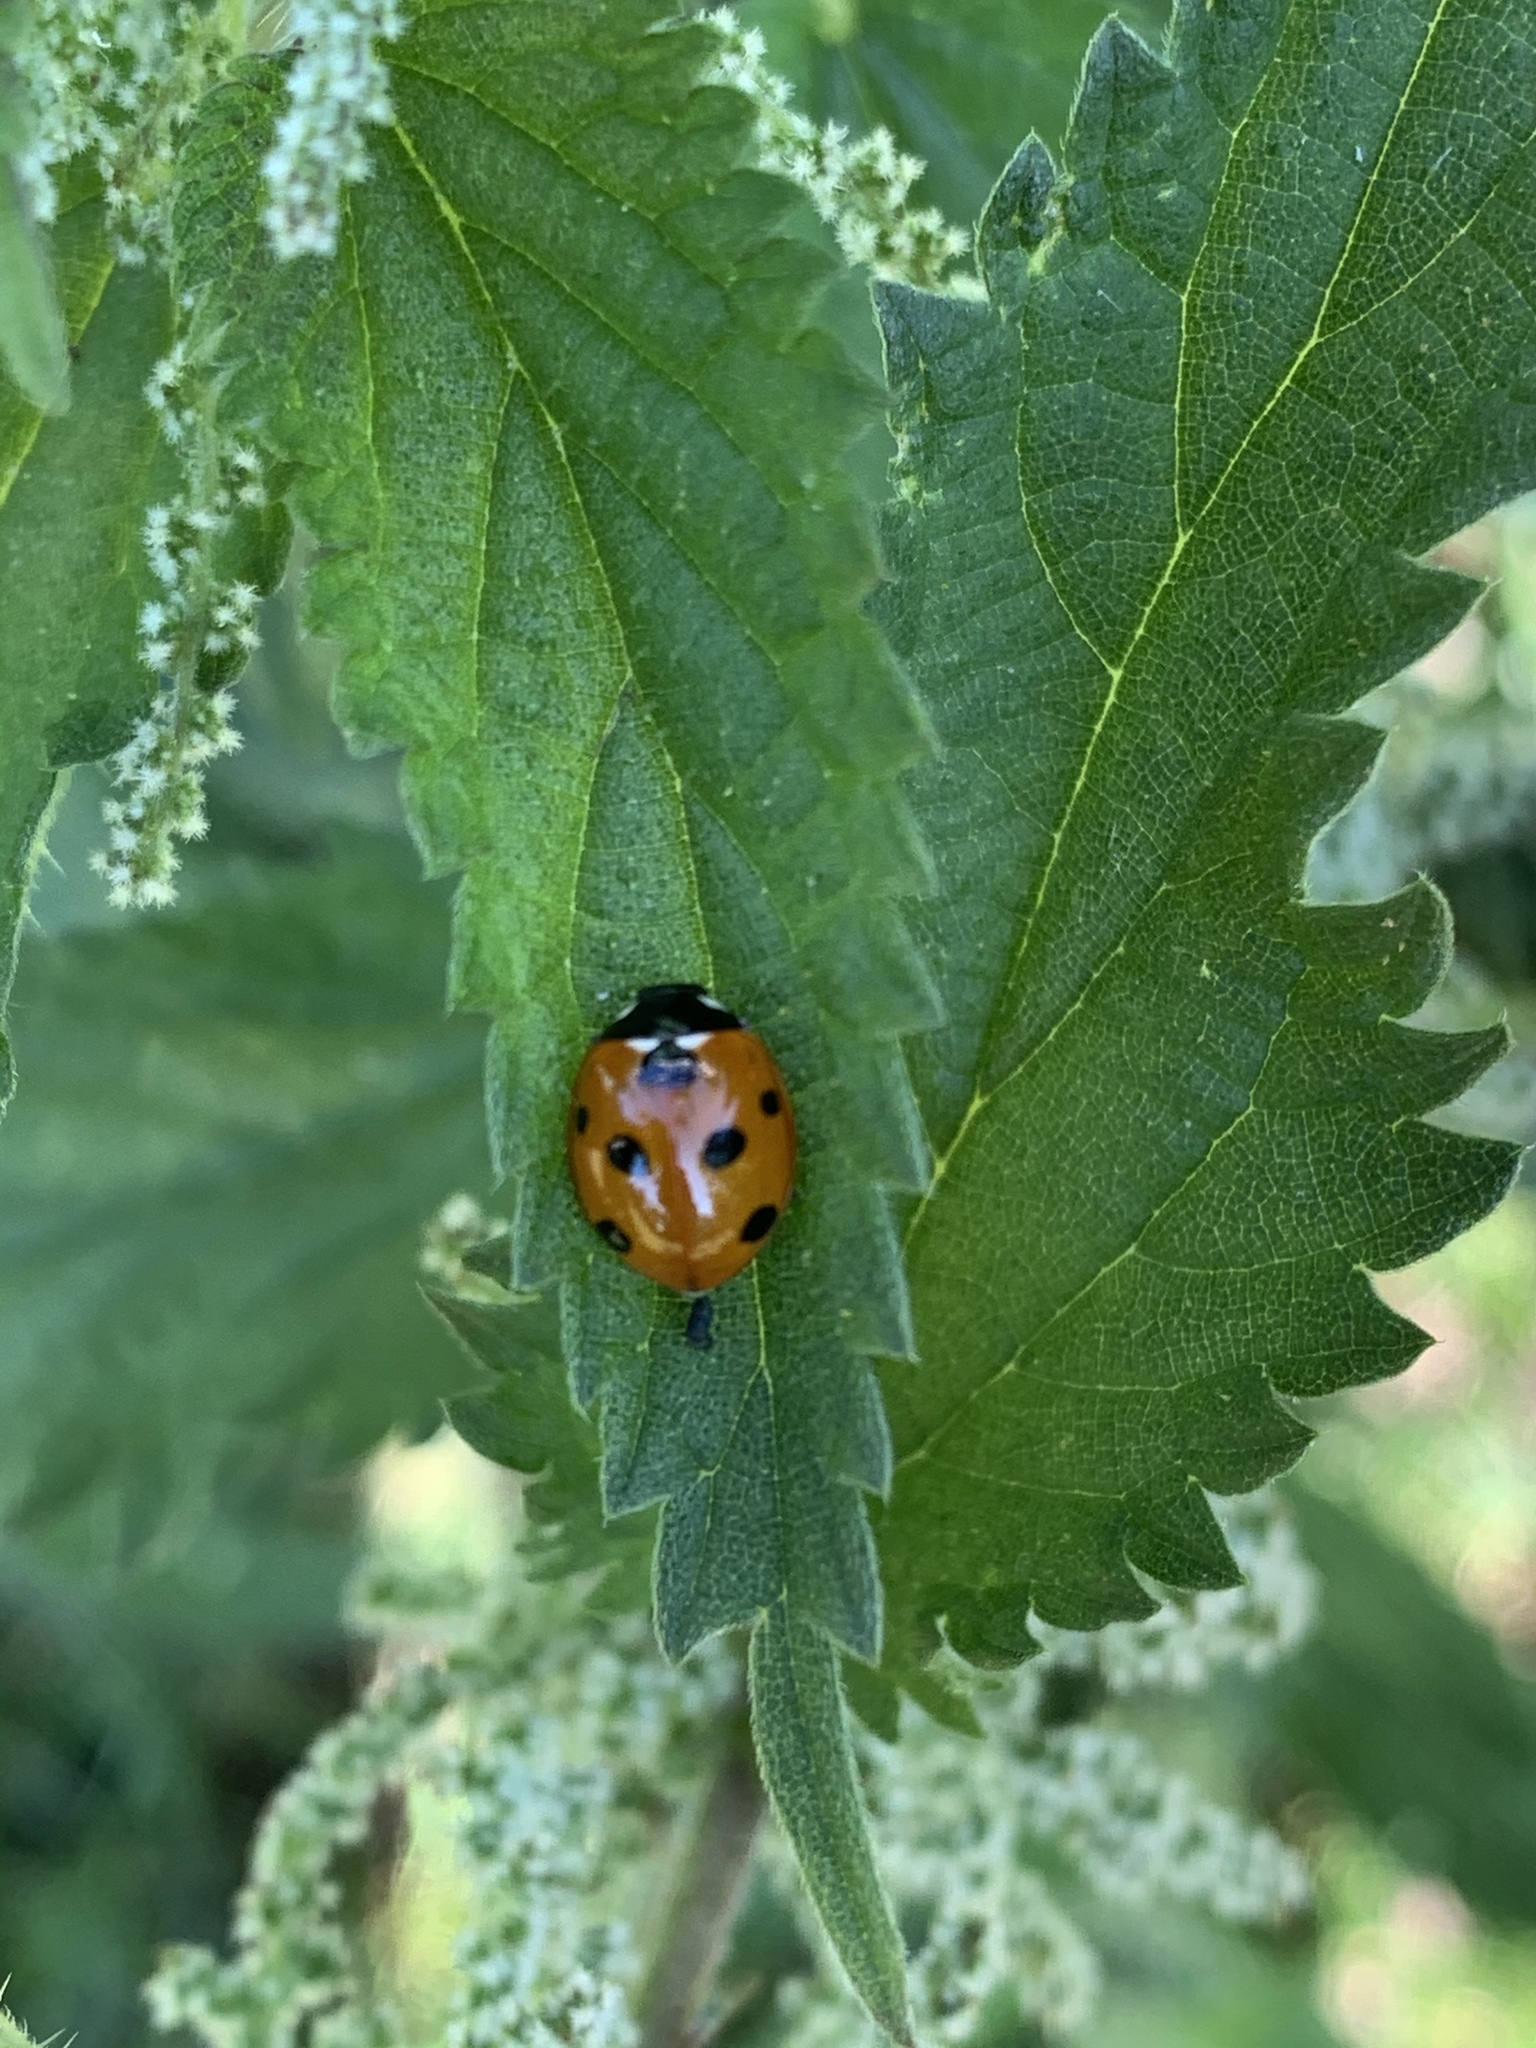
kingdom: Animalia
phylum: Arthropoda
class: Insecta
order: Coleoptera
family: Coccinellidae
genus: Coccinella
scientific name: Coccinella septempunctata
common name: Sevenspotted lady beetle
